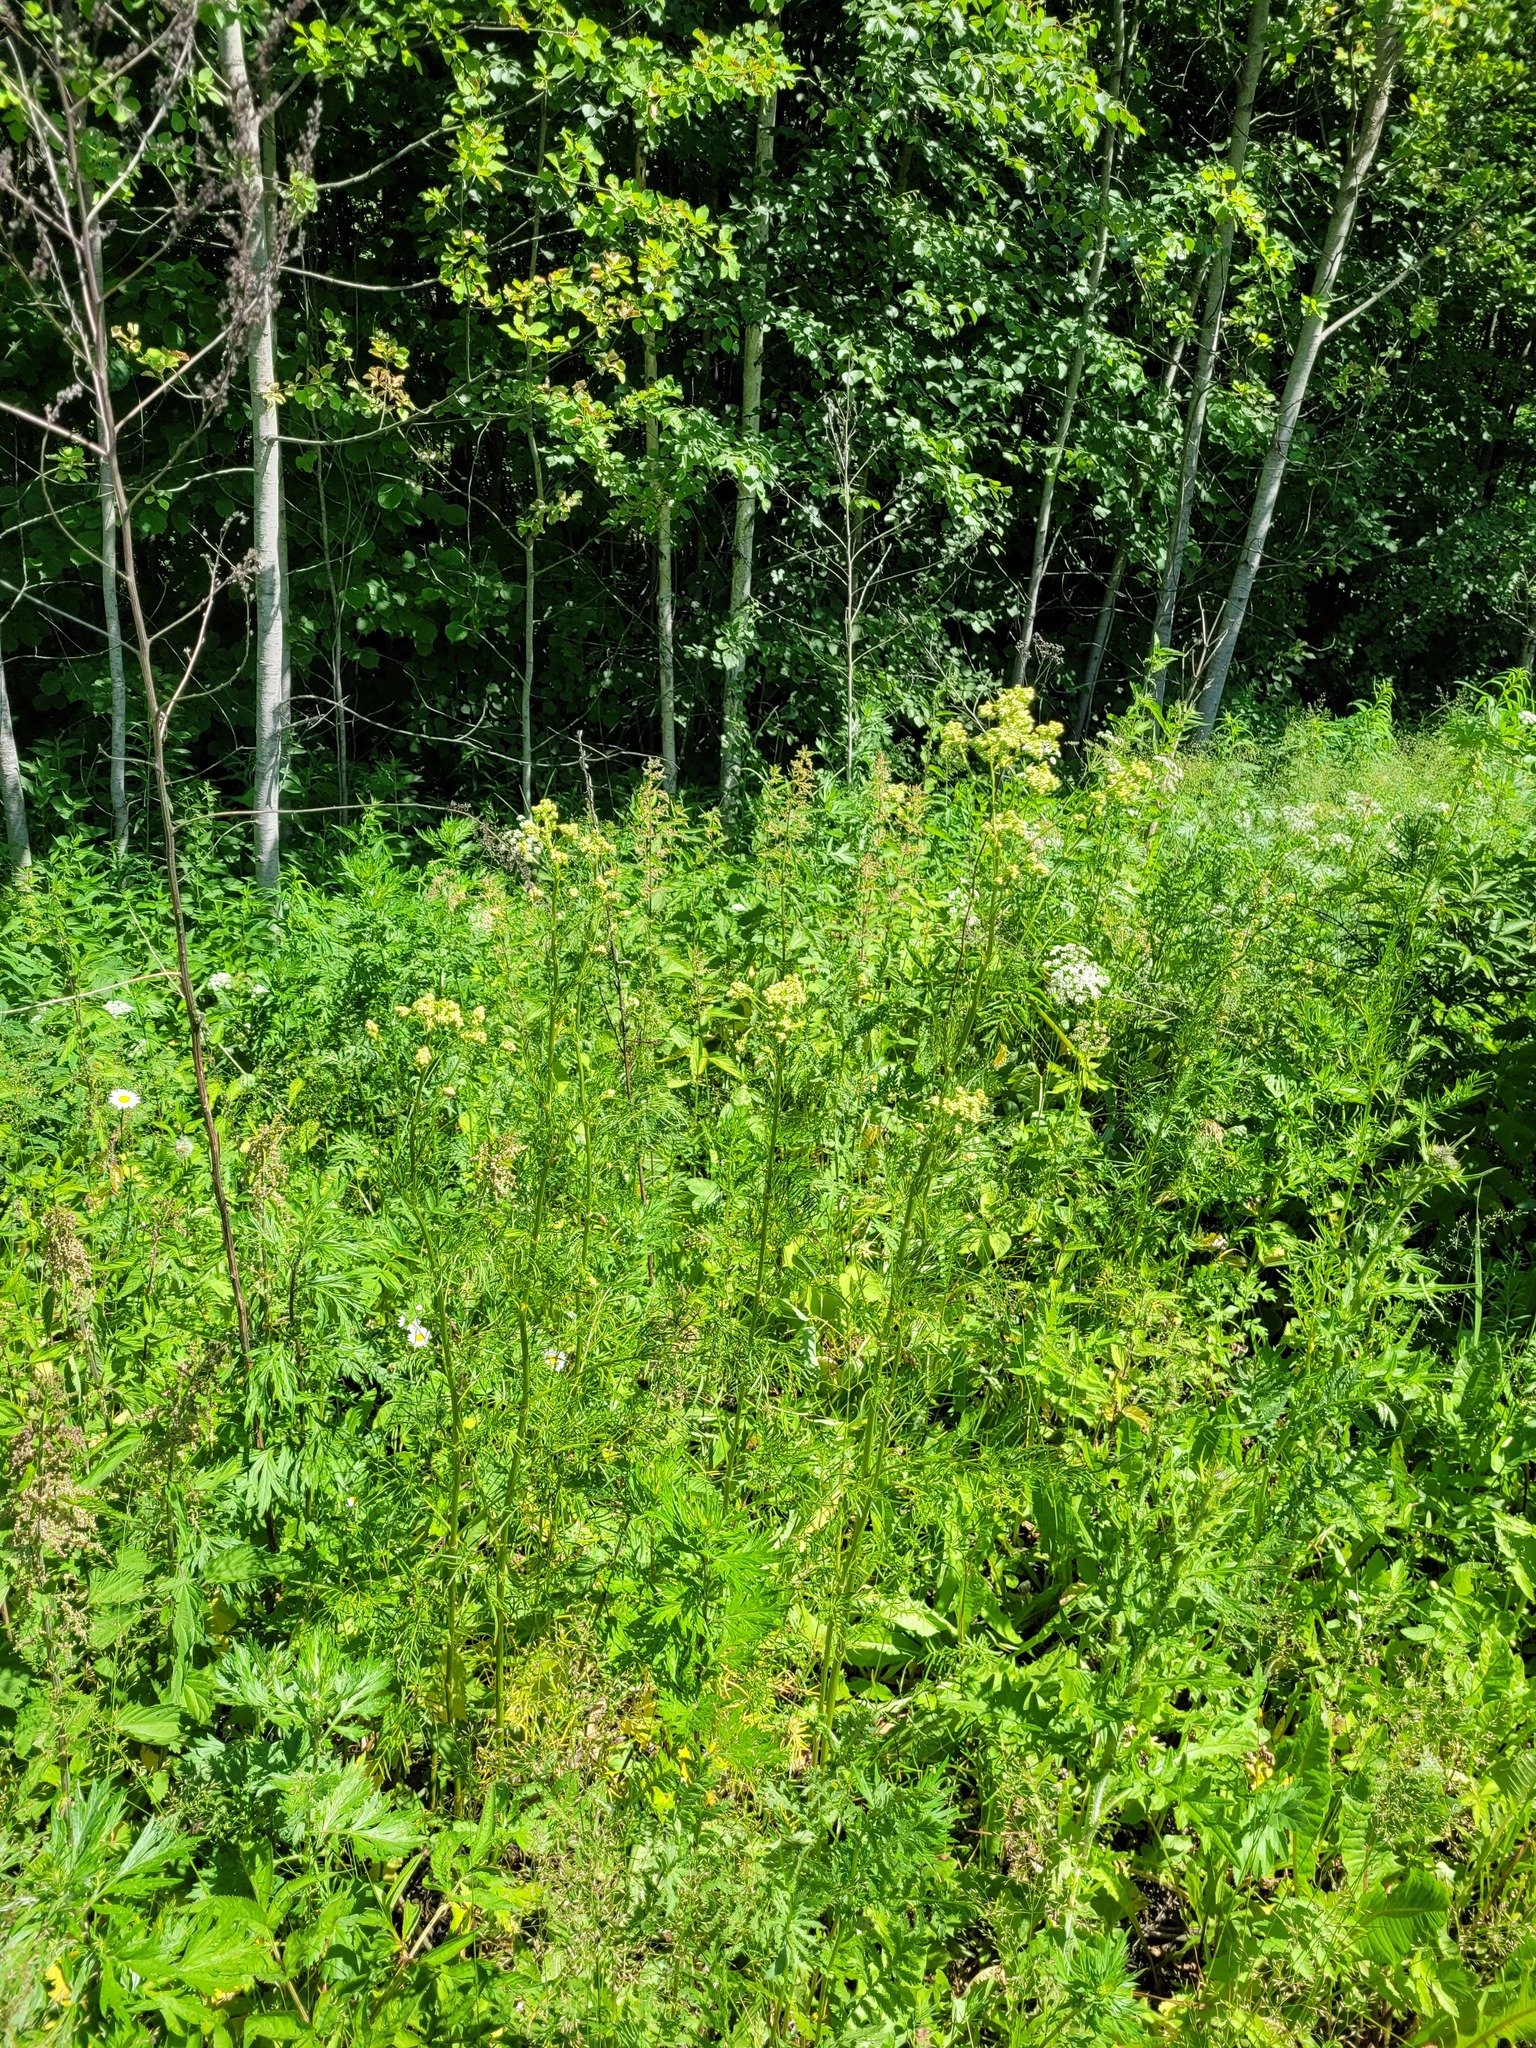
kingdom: Plantae
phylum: Tracheophyta
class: Magnoliopsida
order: Ranunculales
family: Ranunculaceae
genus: Thalictrum
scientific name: Thalictrum lucidum
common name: Shining meadow-rue
